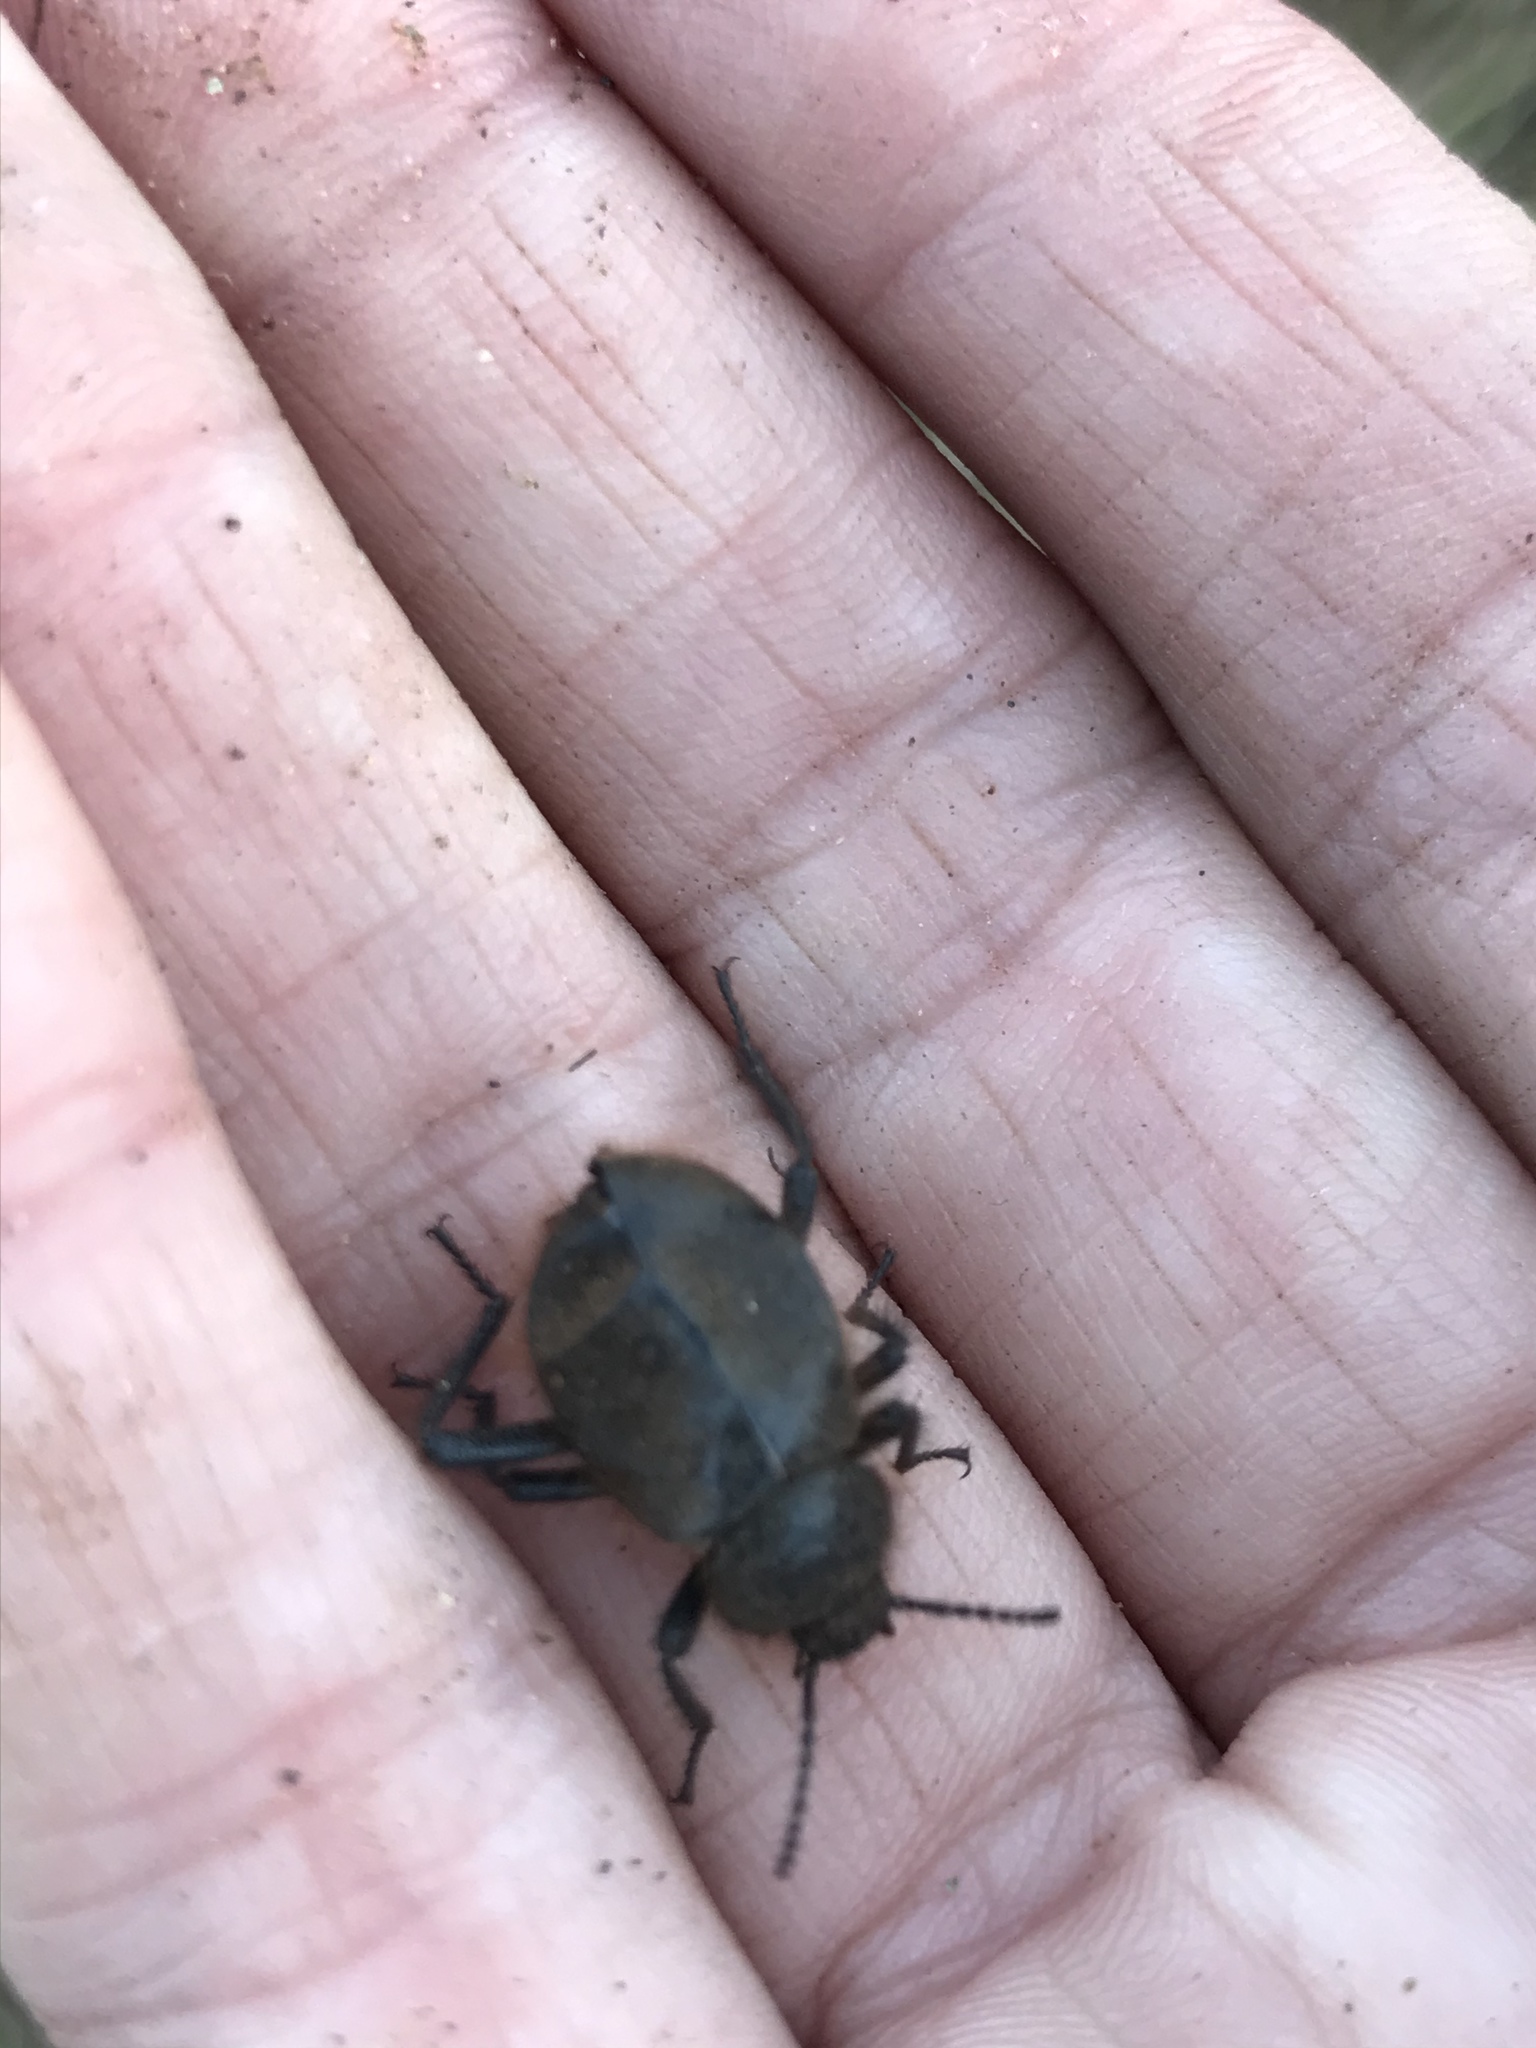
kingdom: Animalia
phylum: Arthropoda
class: Insecta
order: Coleoptera
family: Tenebrionidae
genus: Eleodes
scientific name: Eleodes osculans
